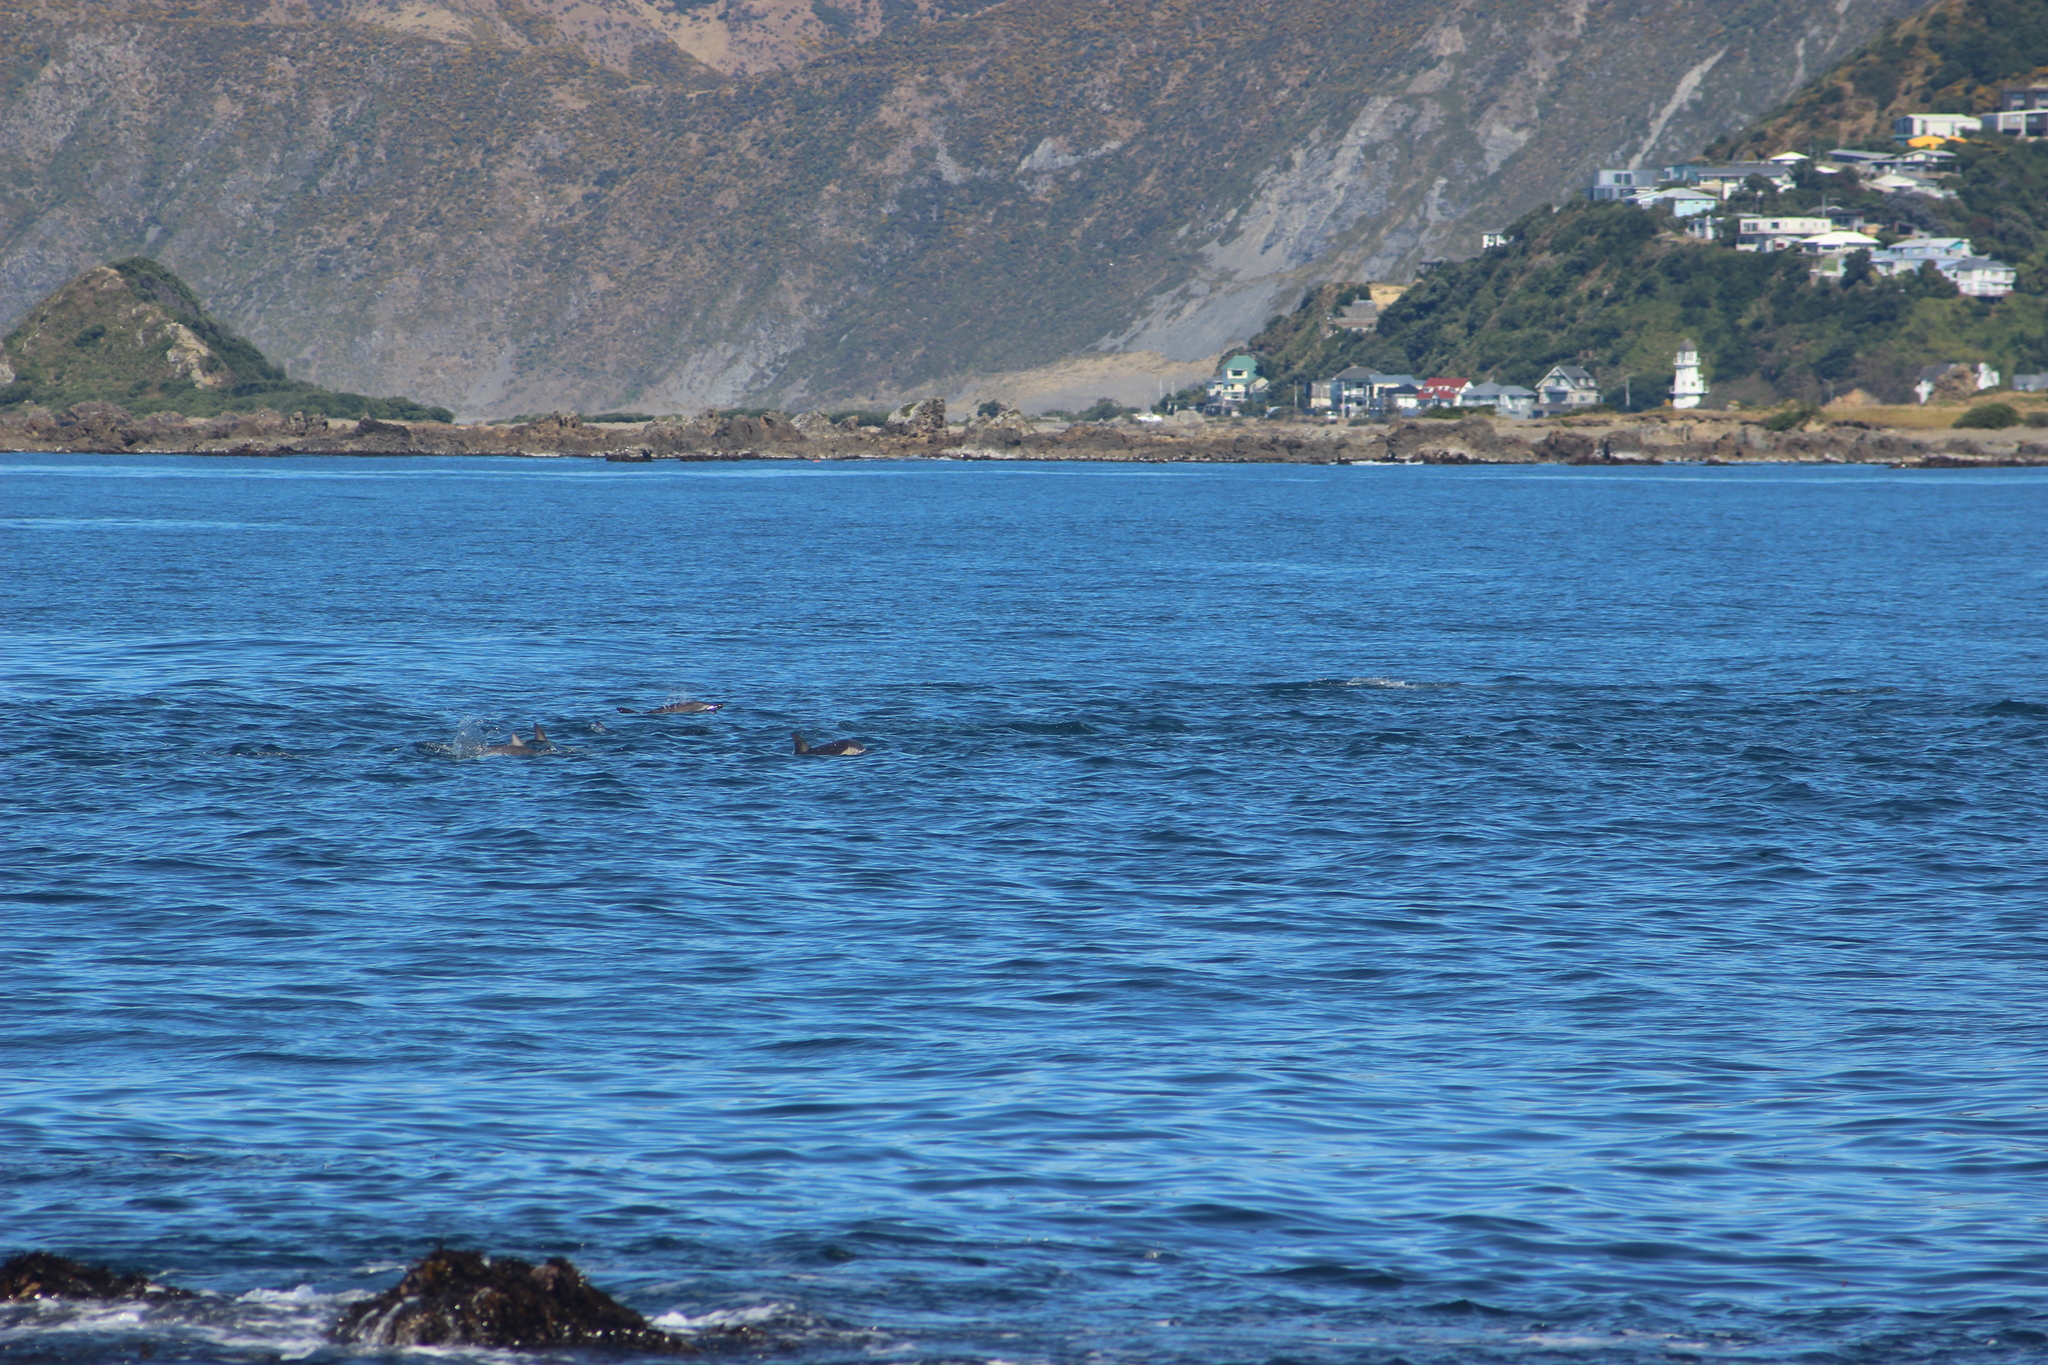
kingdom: Animalia
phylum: Chordata
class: Mammalia
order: Cetacea
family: Delphinidae
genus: Delphinus
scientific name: Delphinus delphis
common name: Common dolphin
